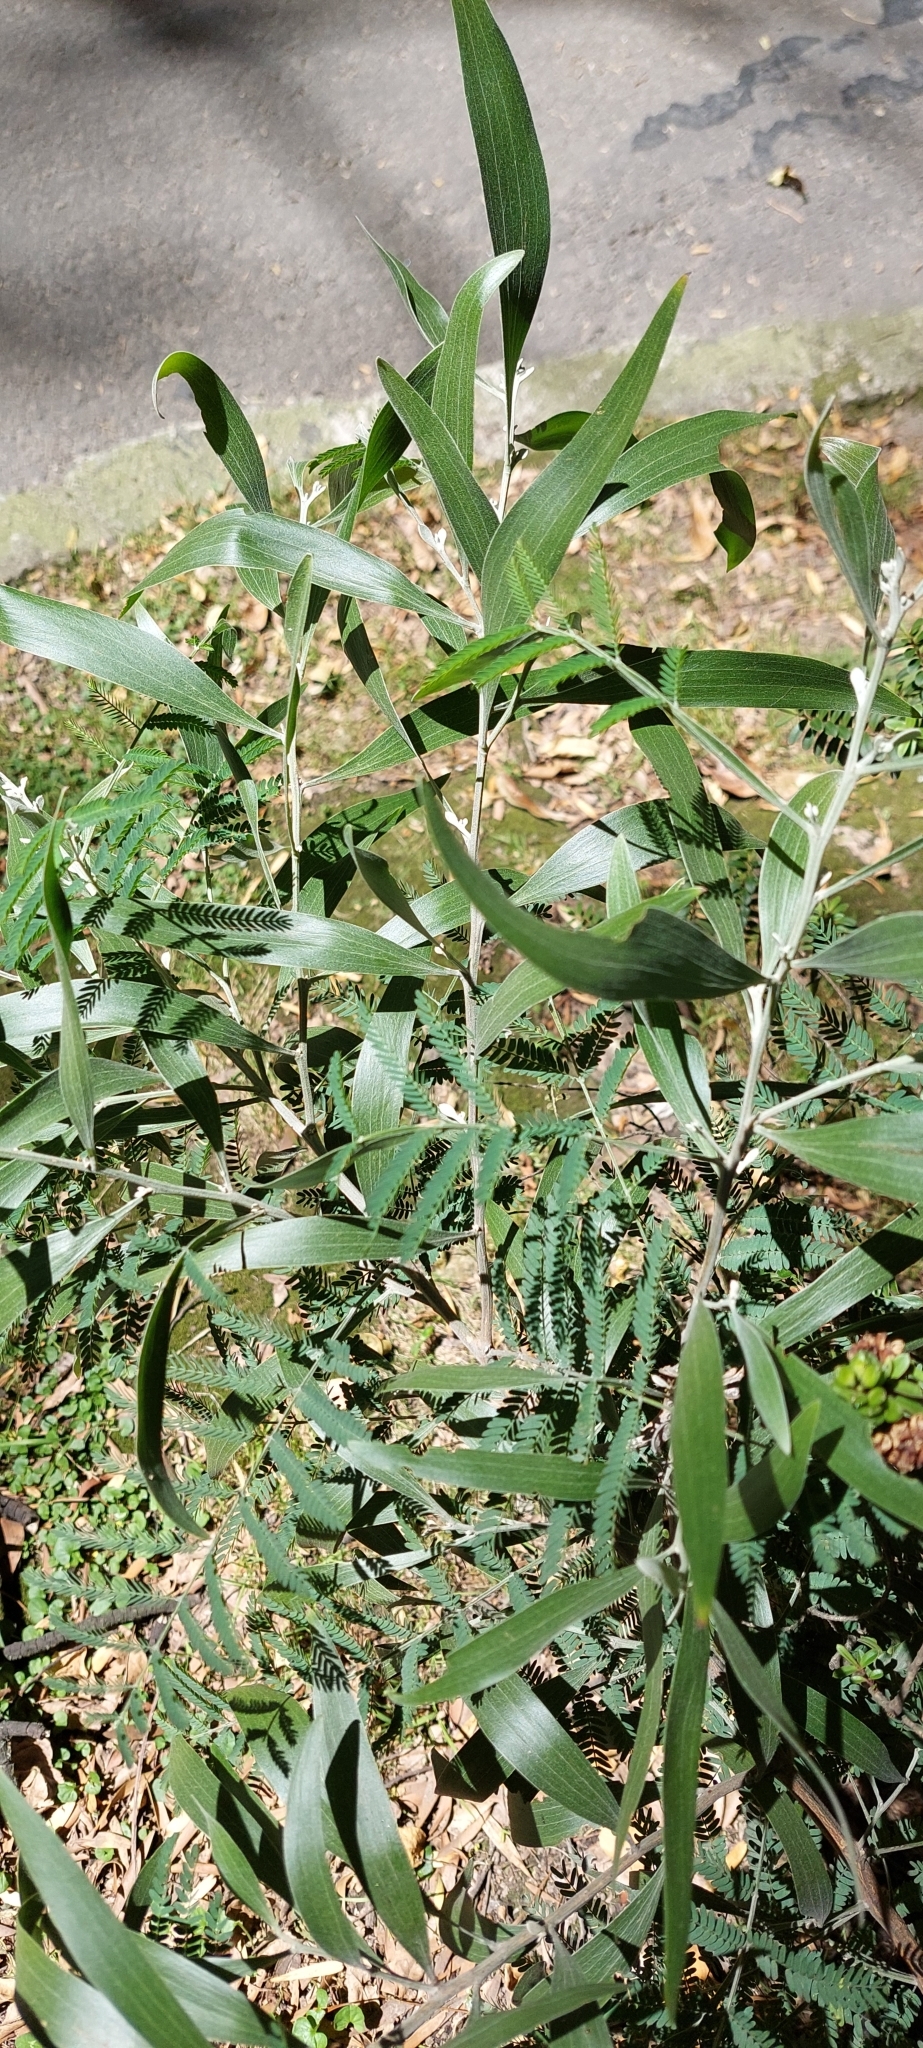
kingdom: Plantae
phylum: Tracheophyta
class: Magnoliopsida
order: Fabales
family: Fabaceae
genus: Acacia
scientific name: Acacia melanoxylon
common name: Blackwood
